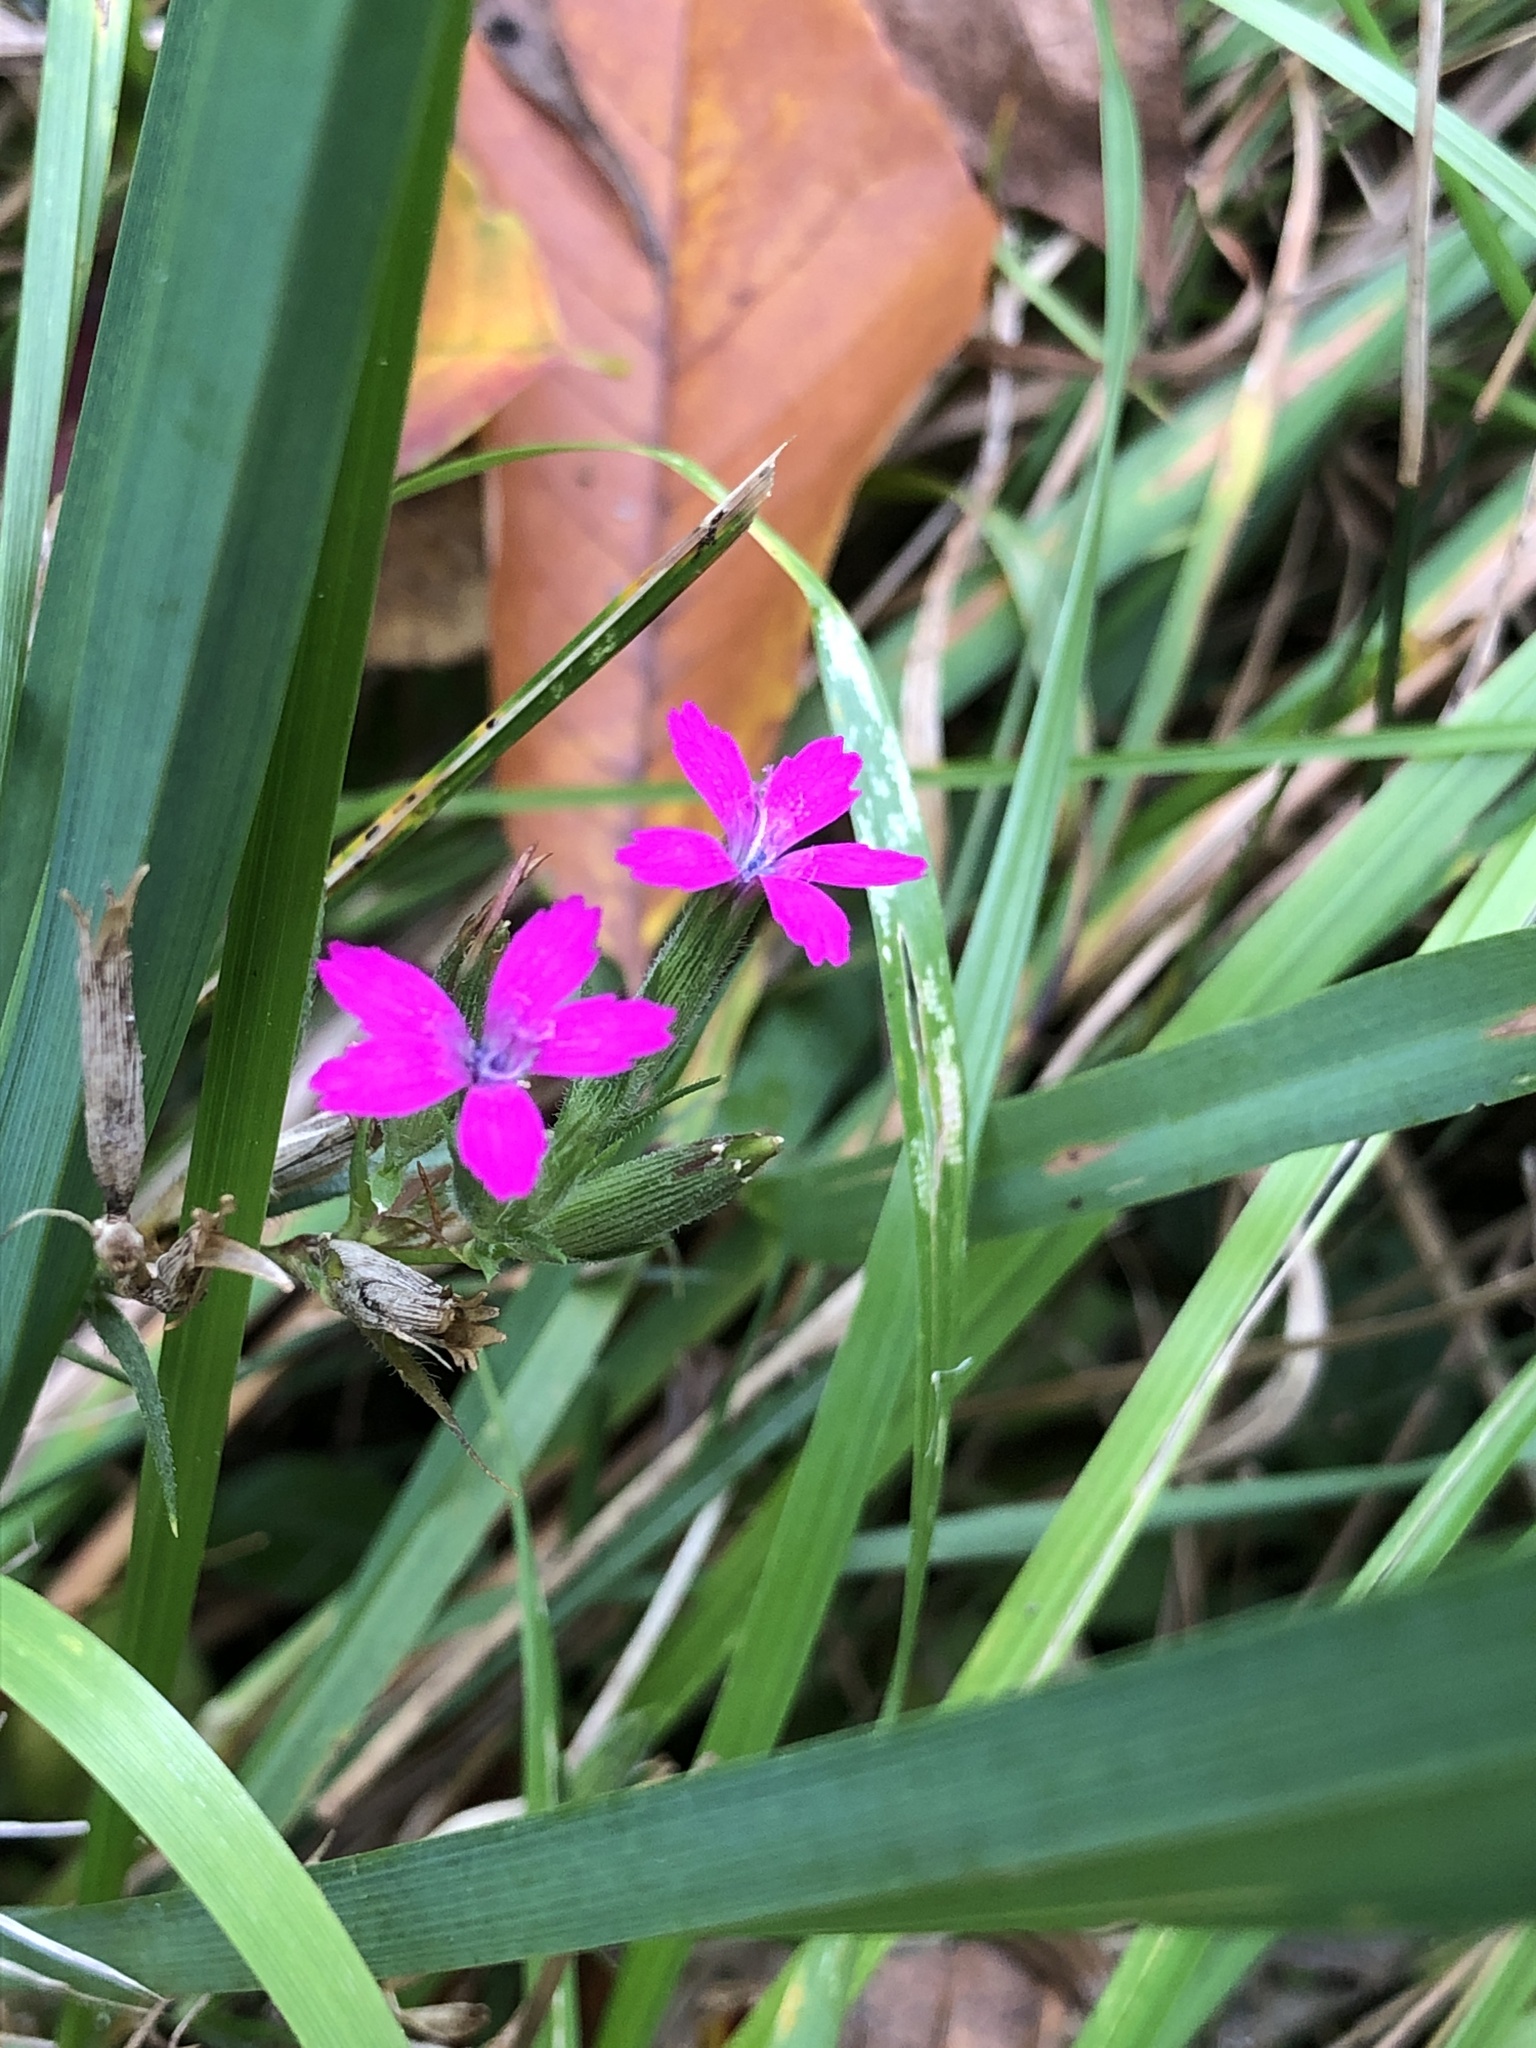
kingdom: Plantae
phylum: Tracheophyta
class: Magnoliopsida
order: Caryophyllales
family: Caryophyllaceae
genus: Dianthus
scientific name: Dianthus armeria
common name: Deptford pink
